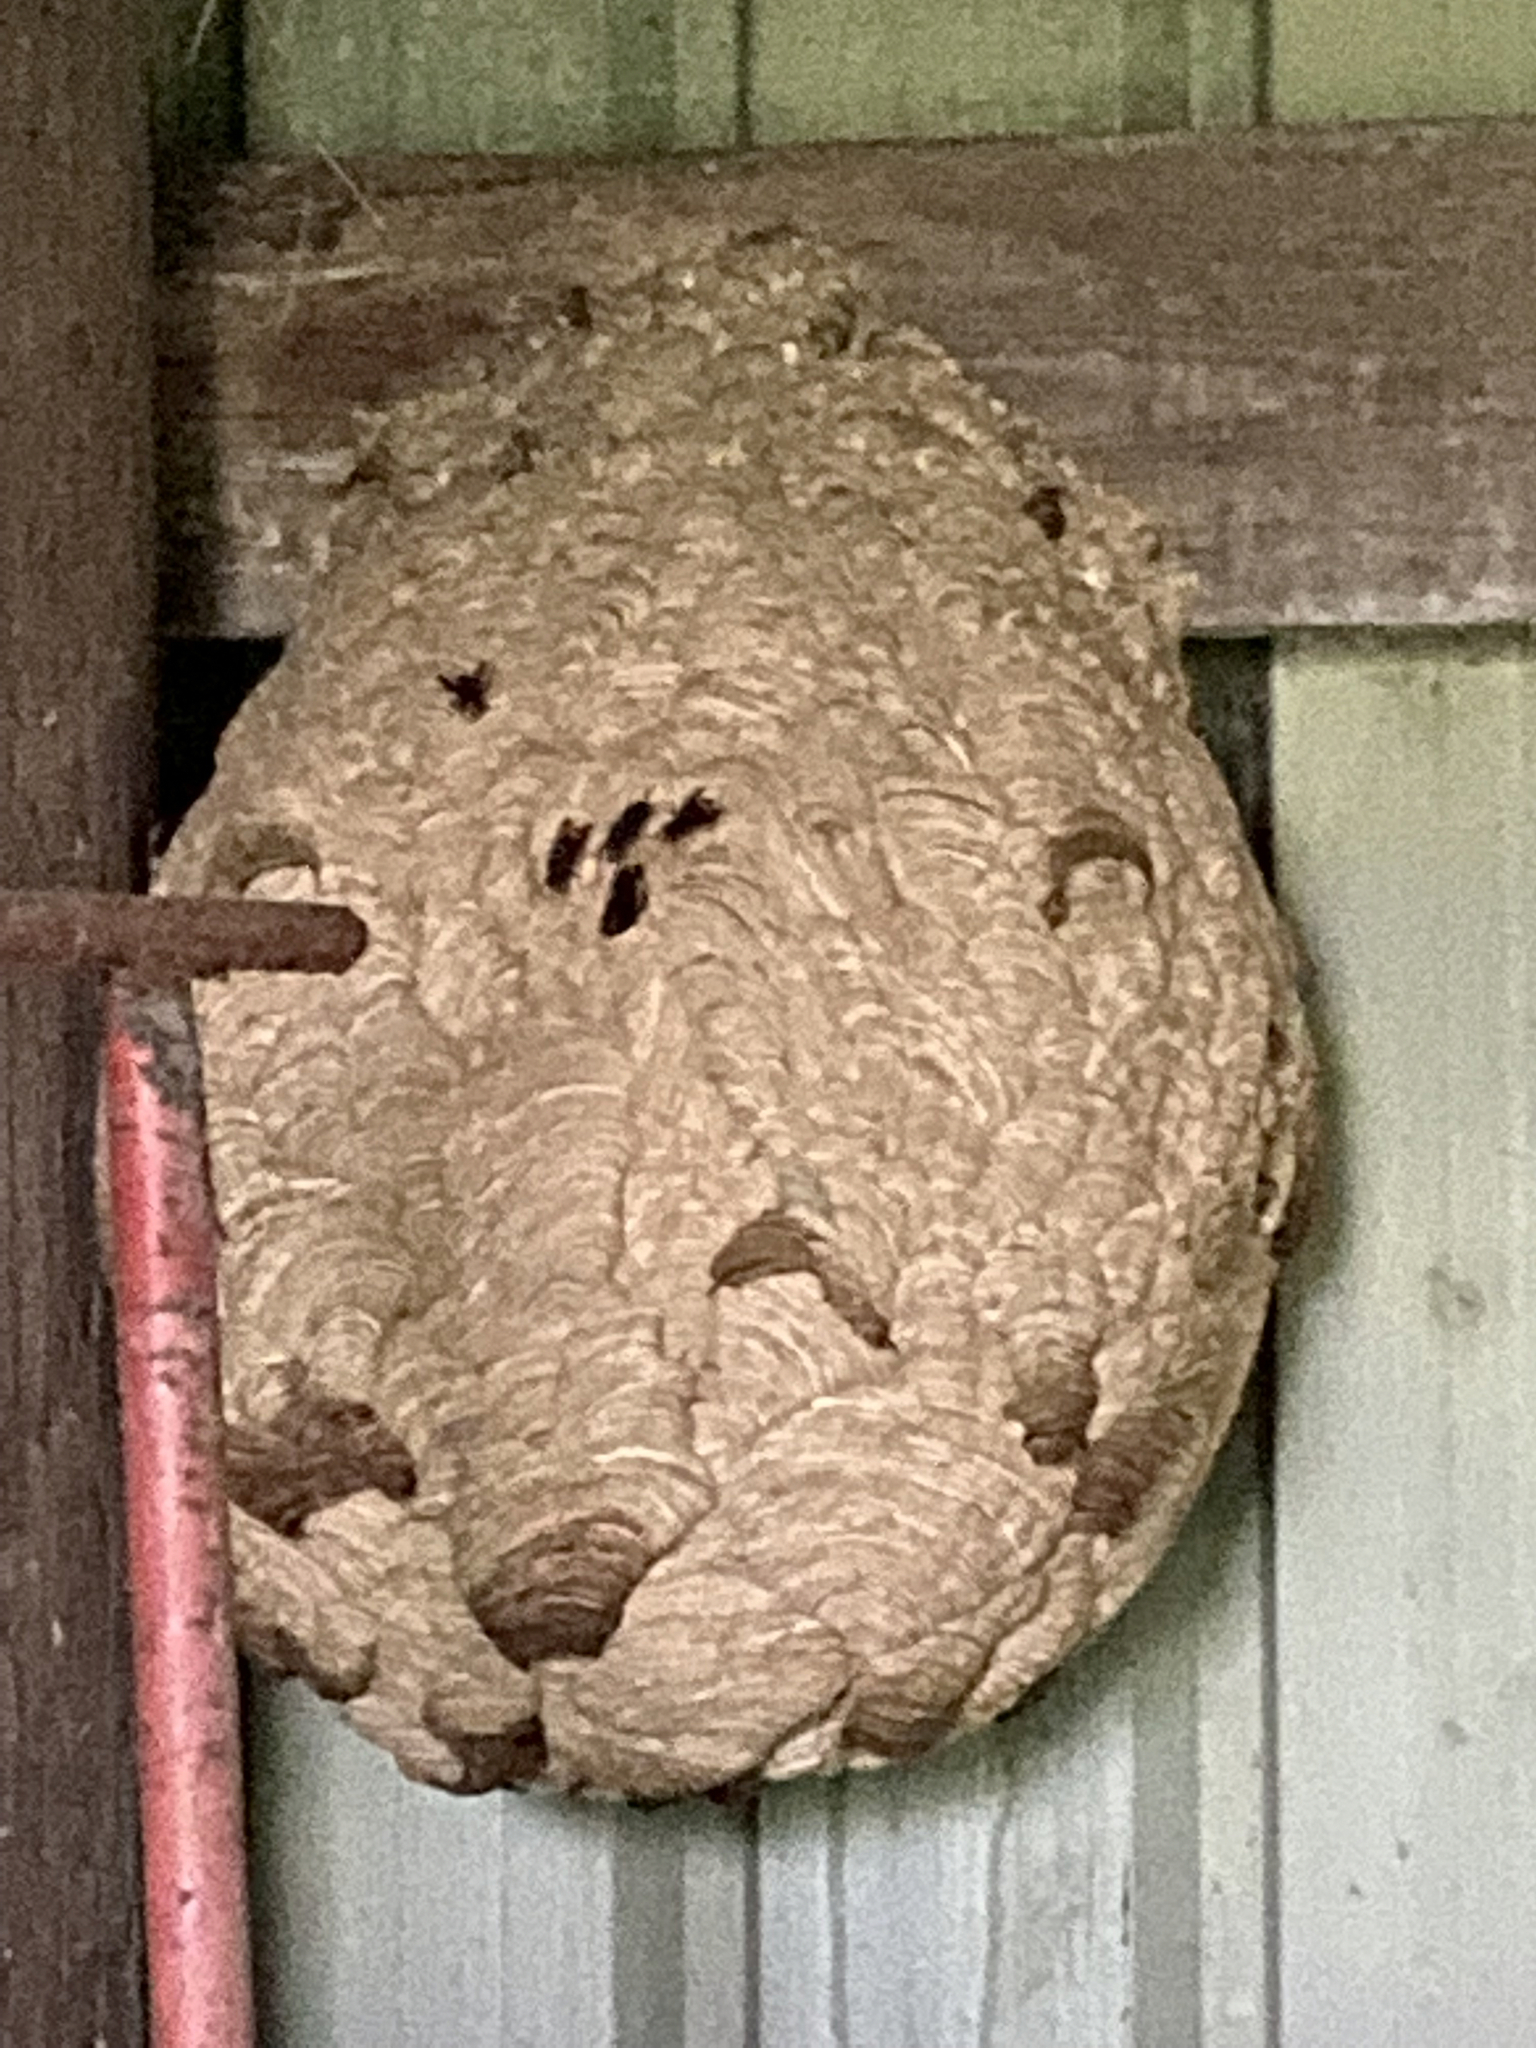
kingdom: Animalia
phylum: Arthropoda
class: Insecta
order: Hymenoptera
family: Vespidae
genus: Vespa
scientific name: Vespa velutina
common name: Asian hornet
